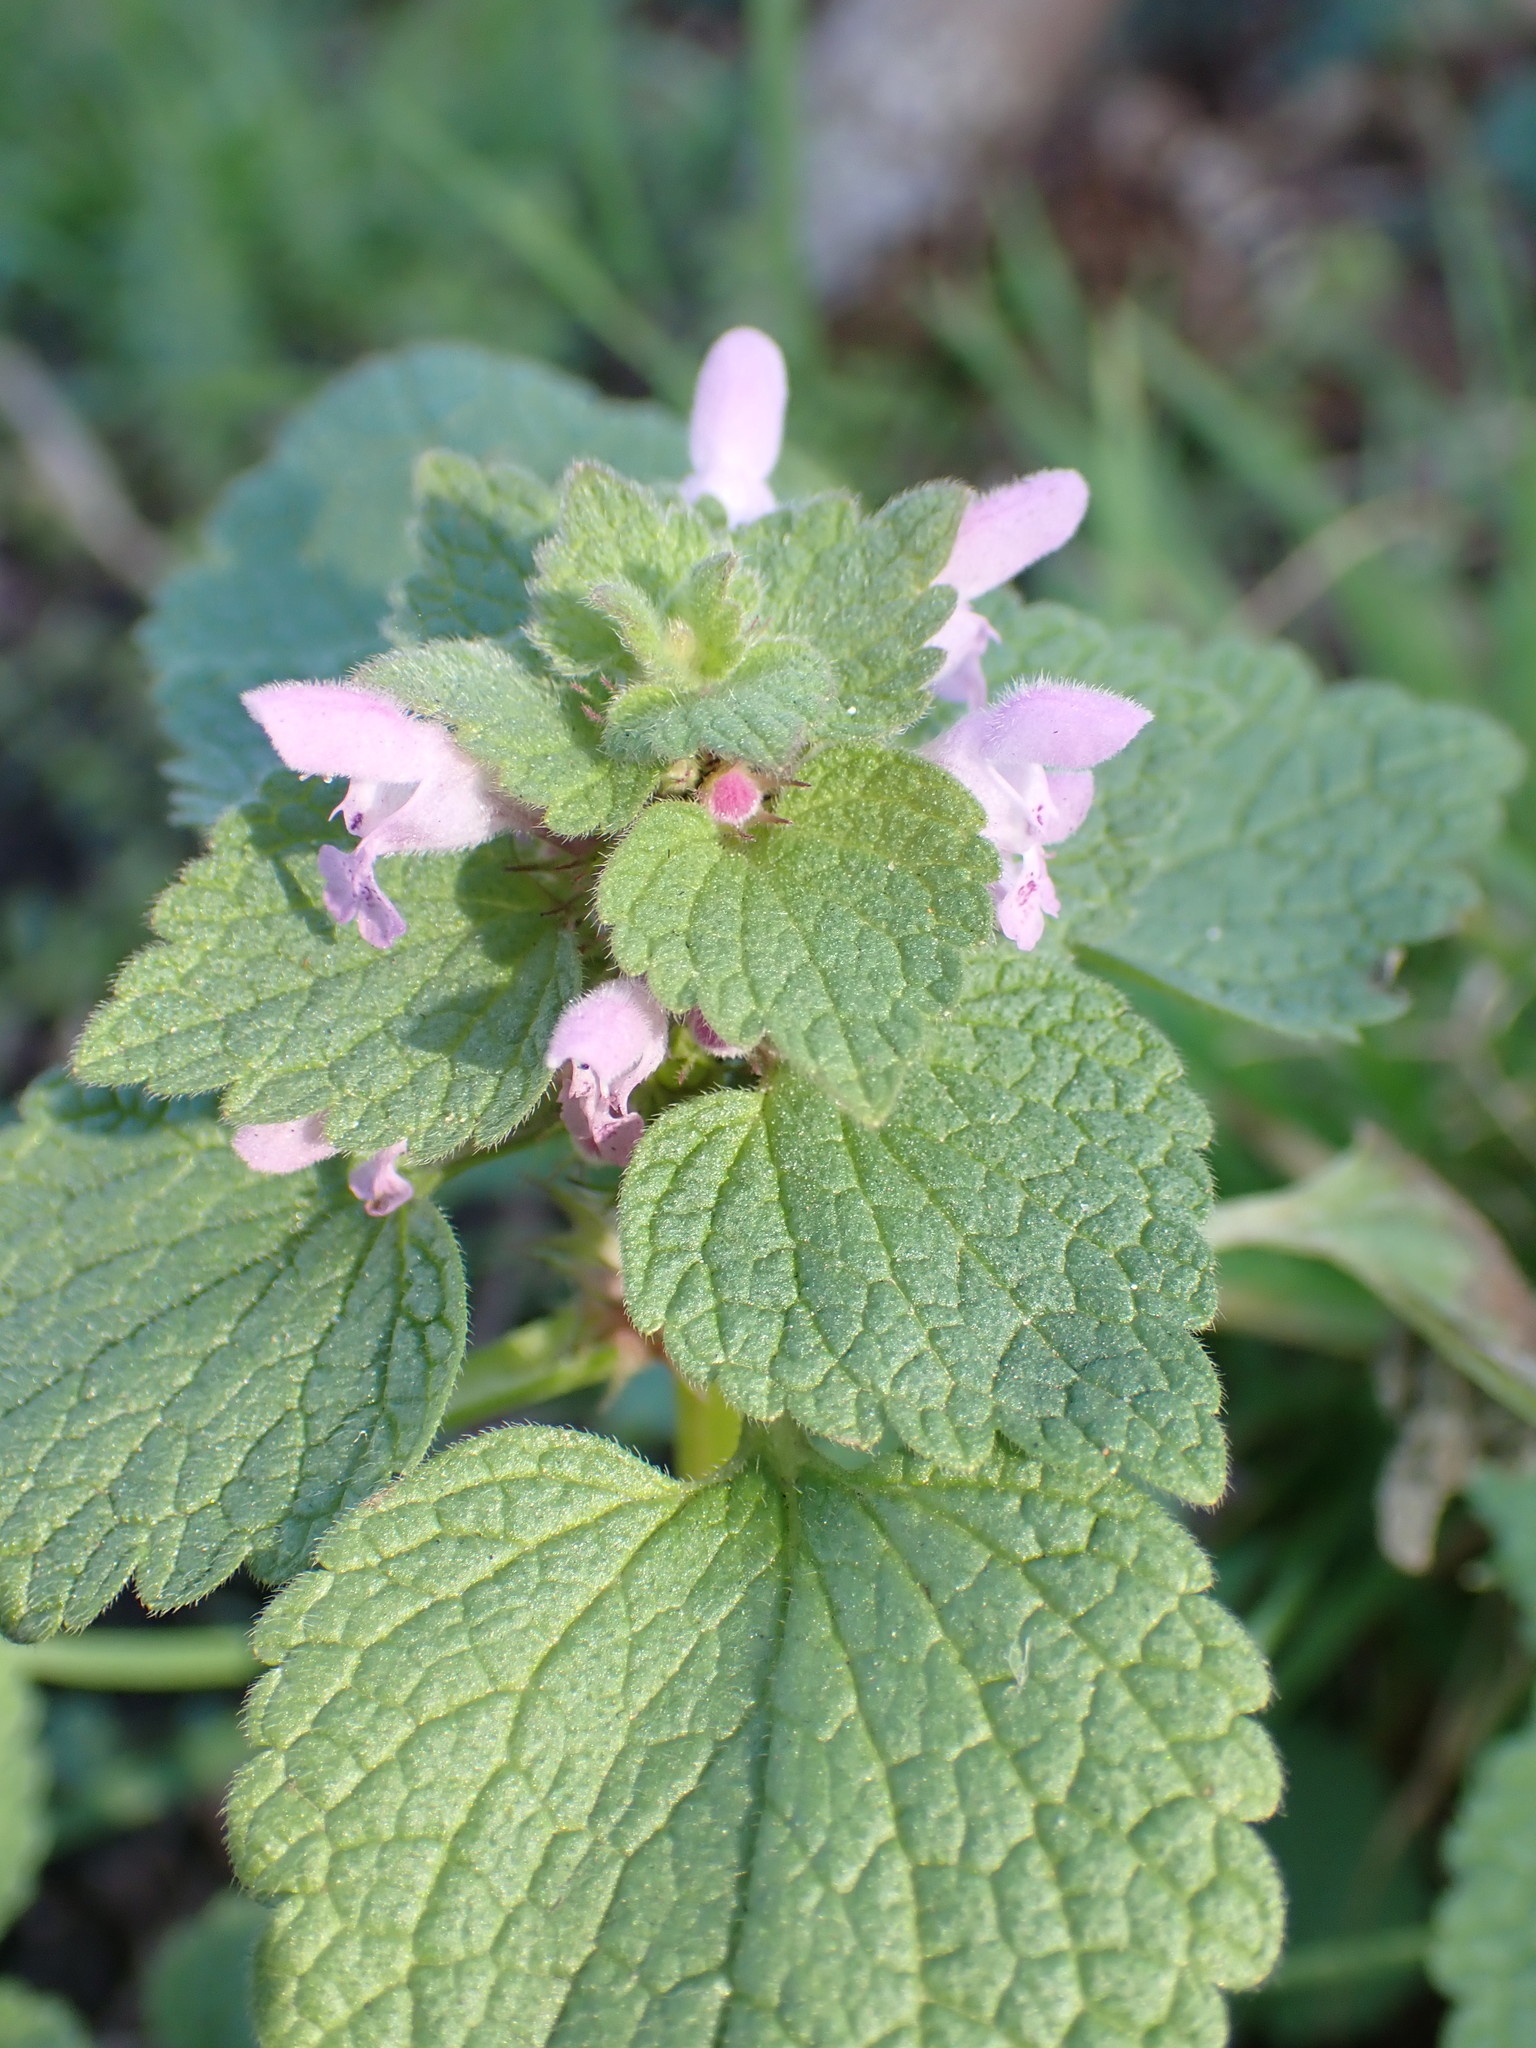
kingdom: Plantae
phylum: Tracheophyta
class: Magnoliopsida
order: Lamiales
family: Lamiaceae
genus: Lamium
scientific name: Lamium purpureum
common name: Red dead-nettle
